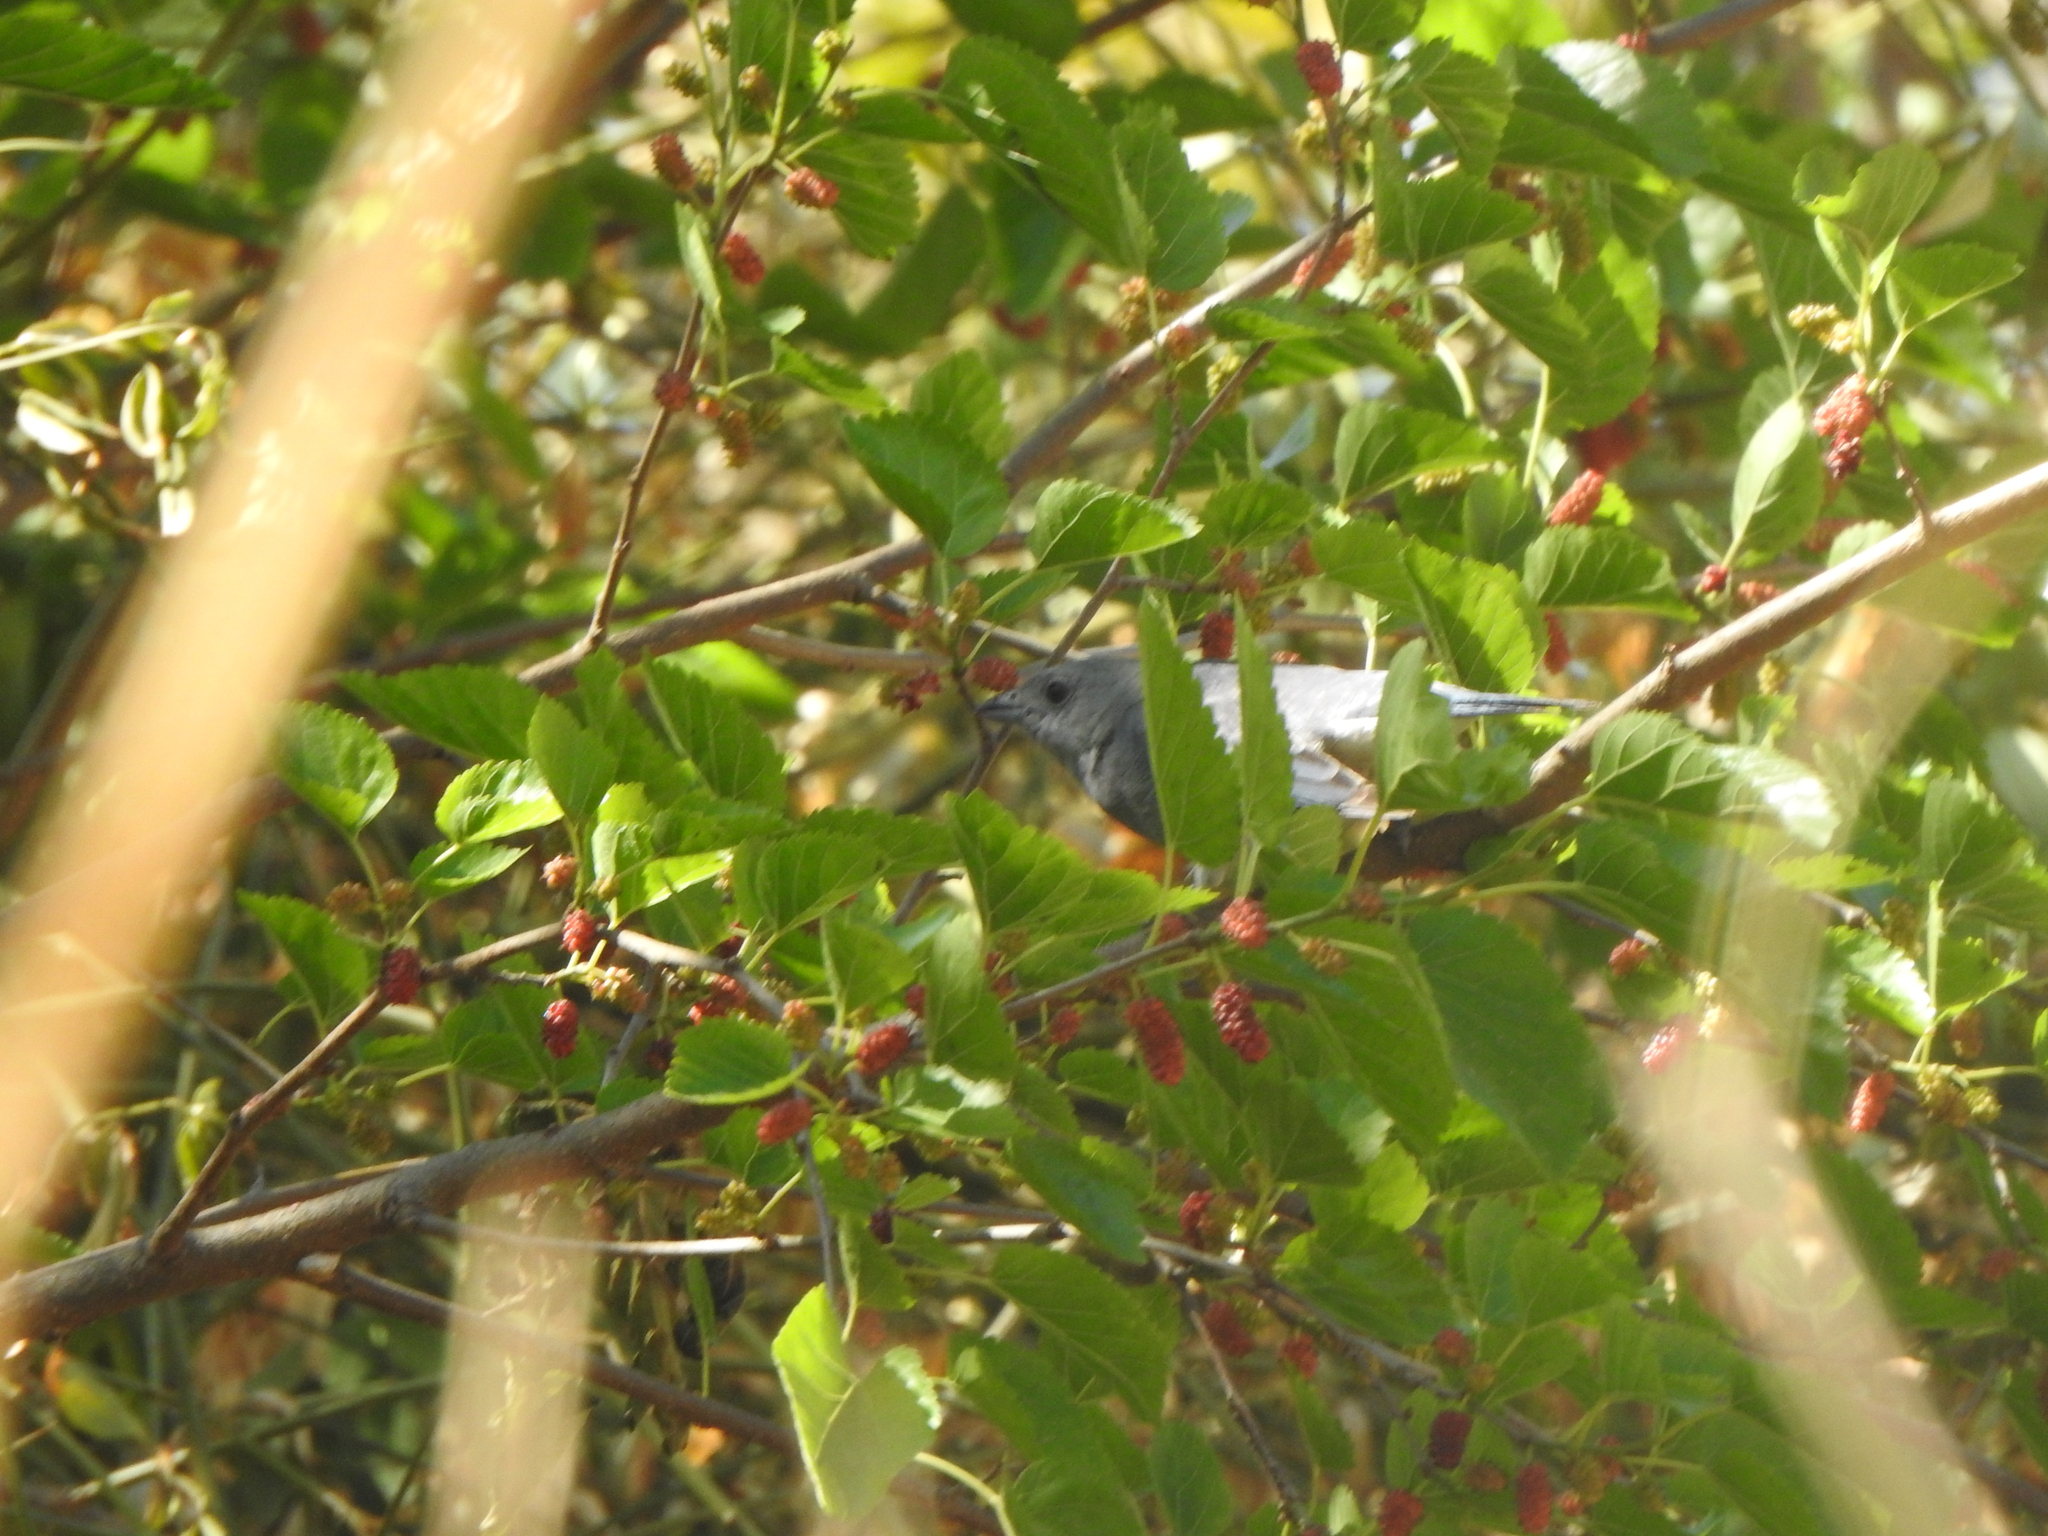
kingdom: Animalia
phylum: Chordata
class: Aves
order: Passeriformes
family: Thraupidae
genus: Thraupis
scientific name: Thraupis sayaca
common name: Sayaca tanager
